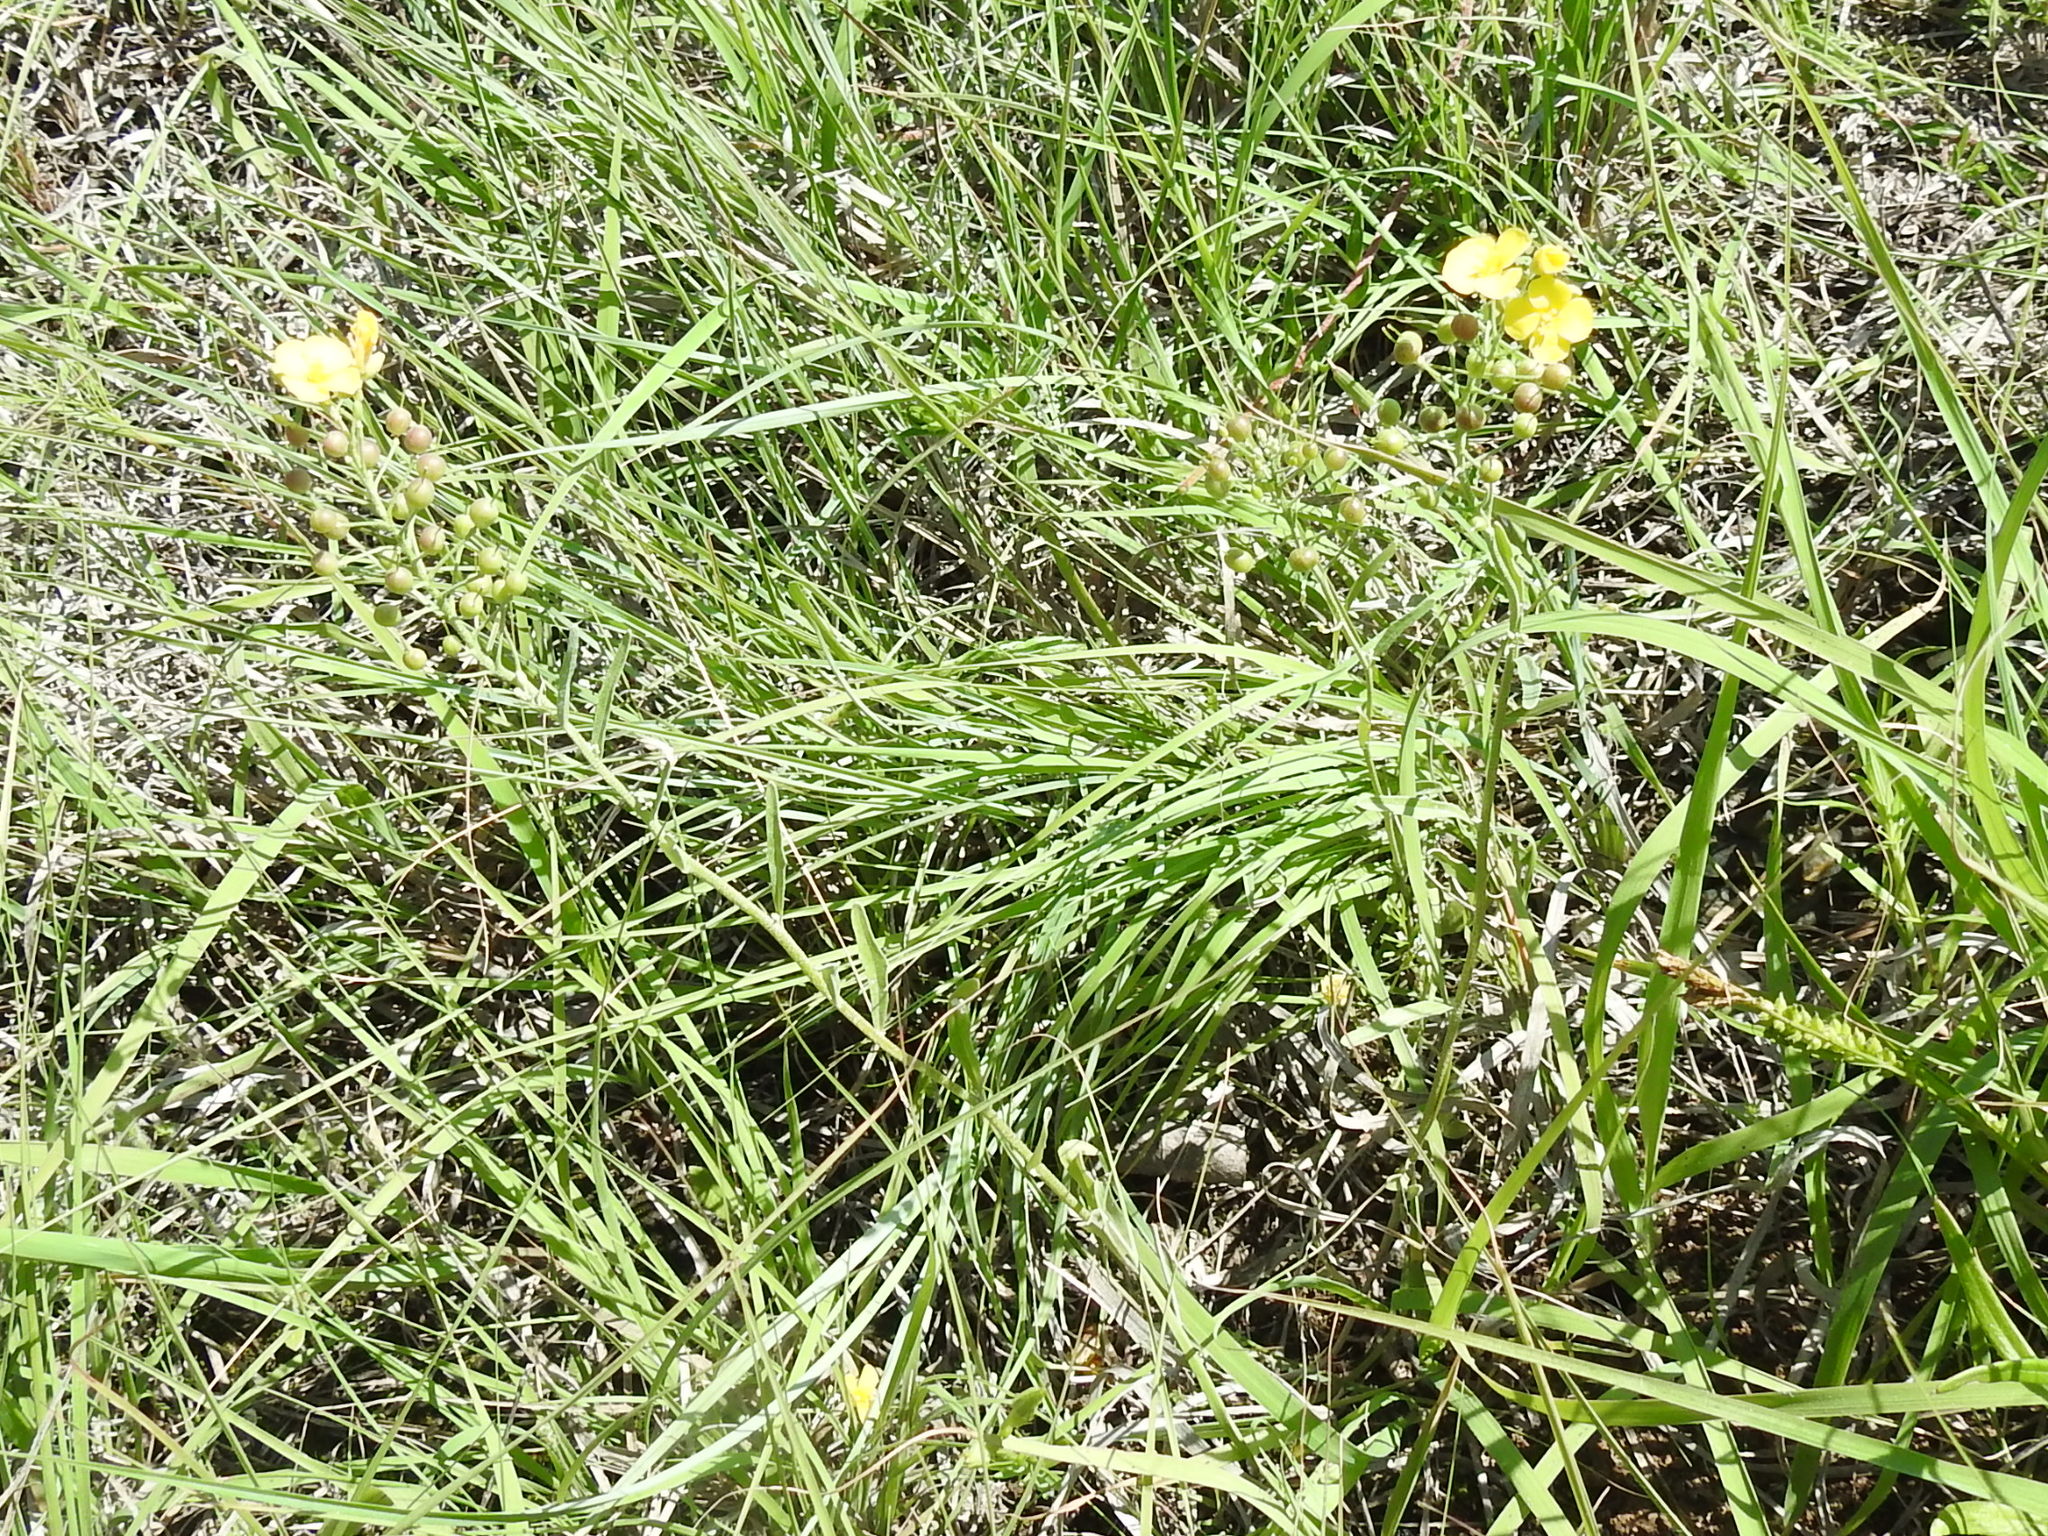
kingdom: Plantae
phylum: Tracheophyta
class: Magnoliopsida
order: Brassicales
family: Brassicaceae
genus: Physaria
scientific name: Physaria gracilis
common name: Spreading bladderpod
